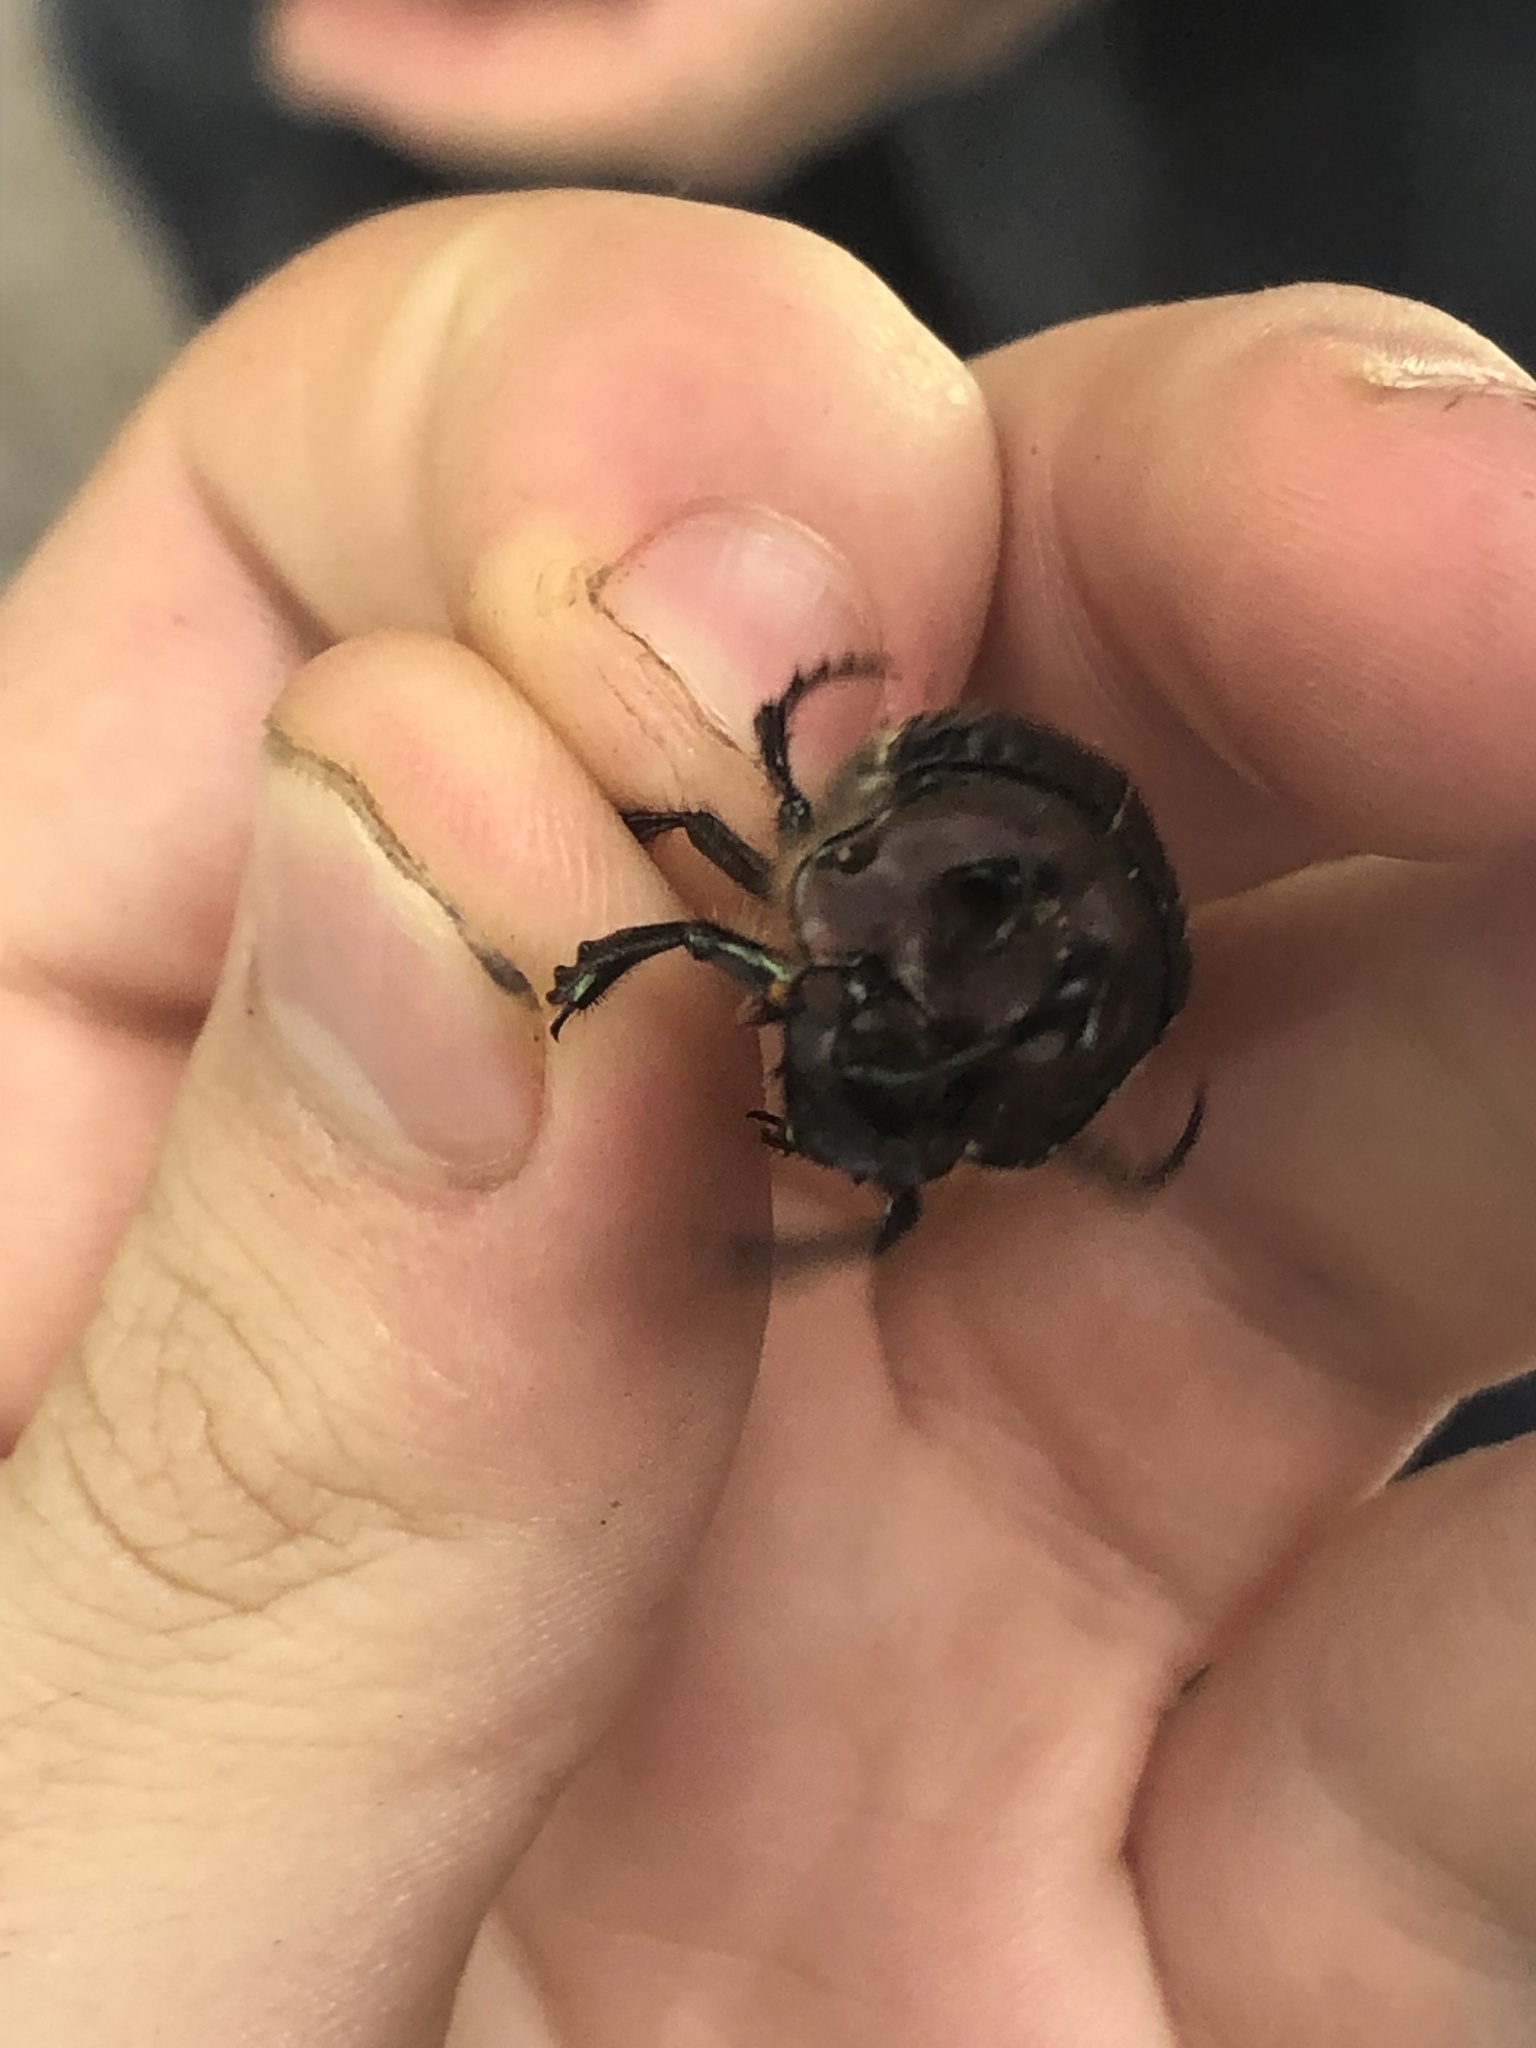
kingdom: Animalia
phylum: Arthropoda
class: Insecta
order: Coleoptera
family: Scarabaeidae
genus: Phanaeus
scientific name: Phanaeus bispinus
